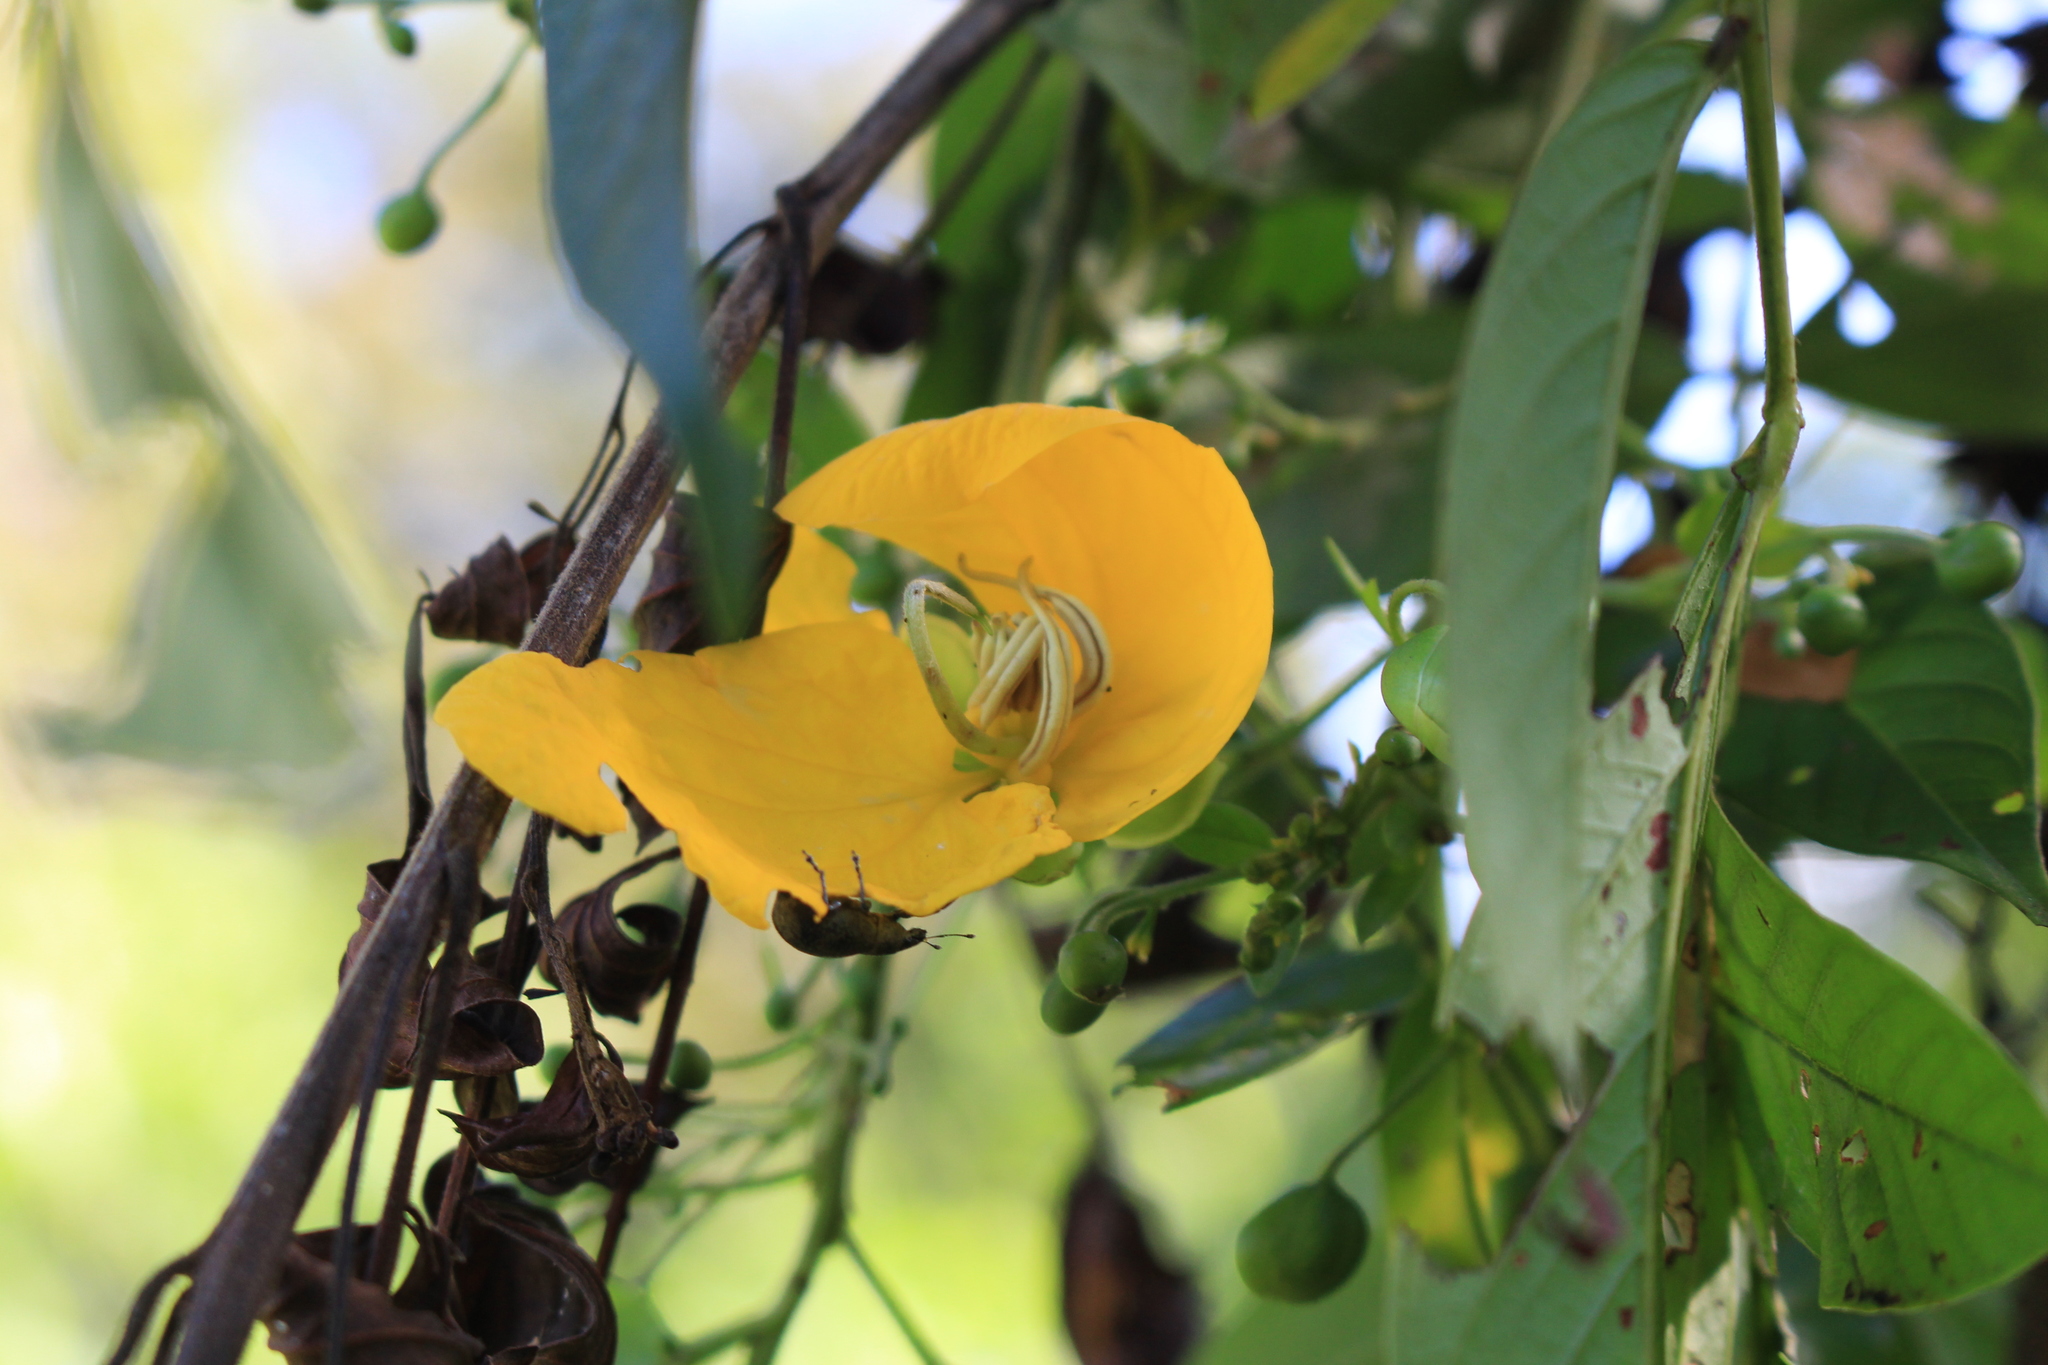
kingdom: Plantae
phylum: Tracheophyta
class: Magnoliopsida
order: Fabales
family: Fabaceae
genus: Senna
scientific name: Senna tonduzii
